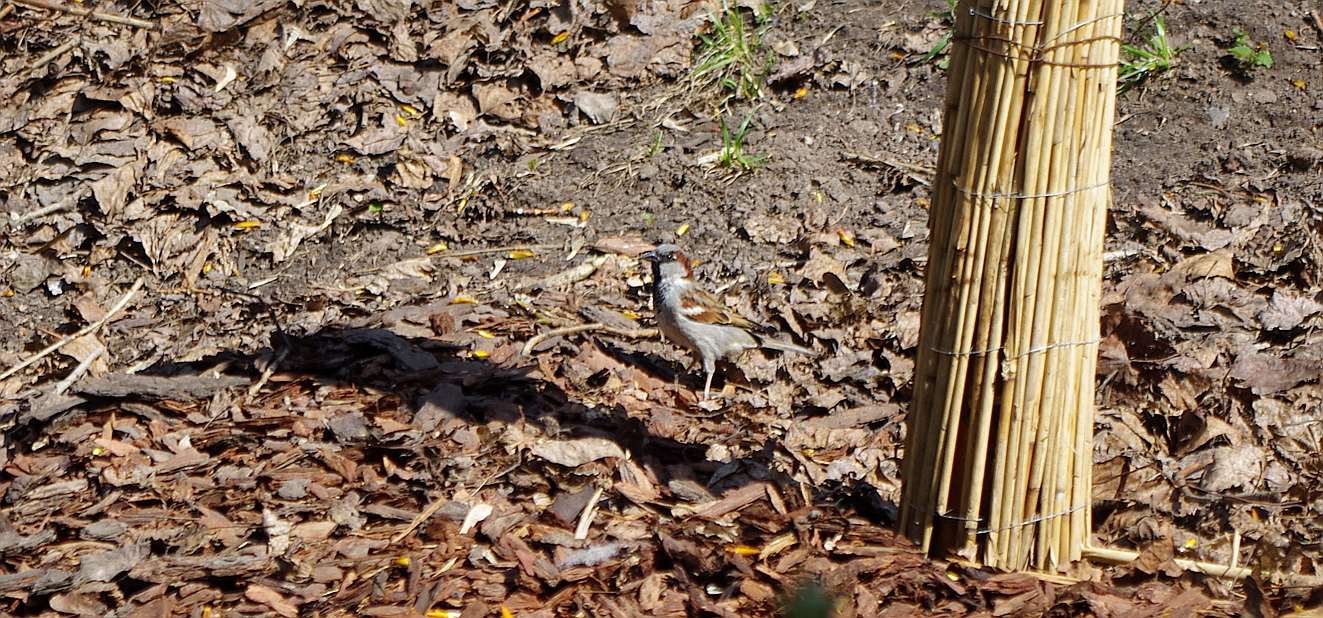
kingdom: Animalia
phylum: Chordata
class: Aves
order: Passeriformes
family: Passeridae
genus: Passer
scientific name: Passer domesticus
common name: House sparrow
